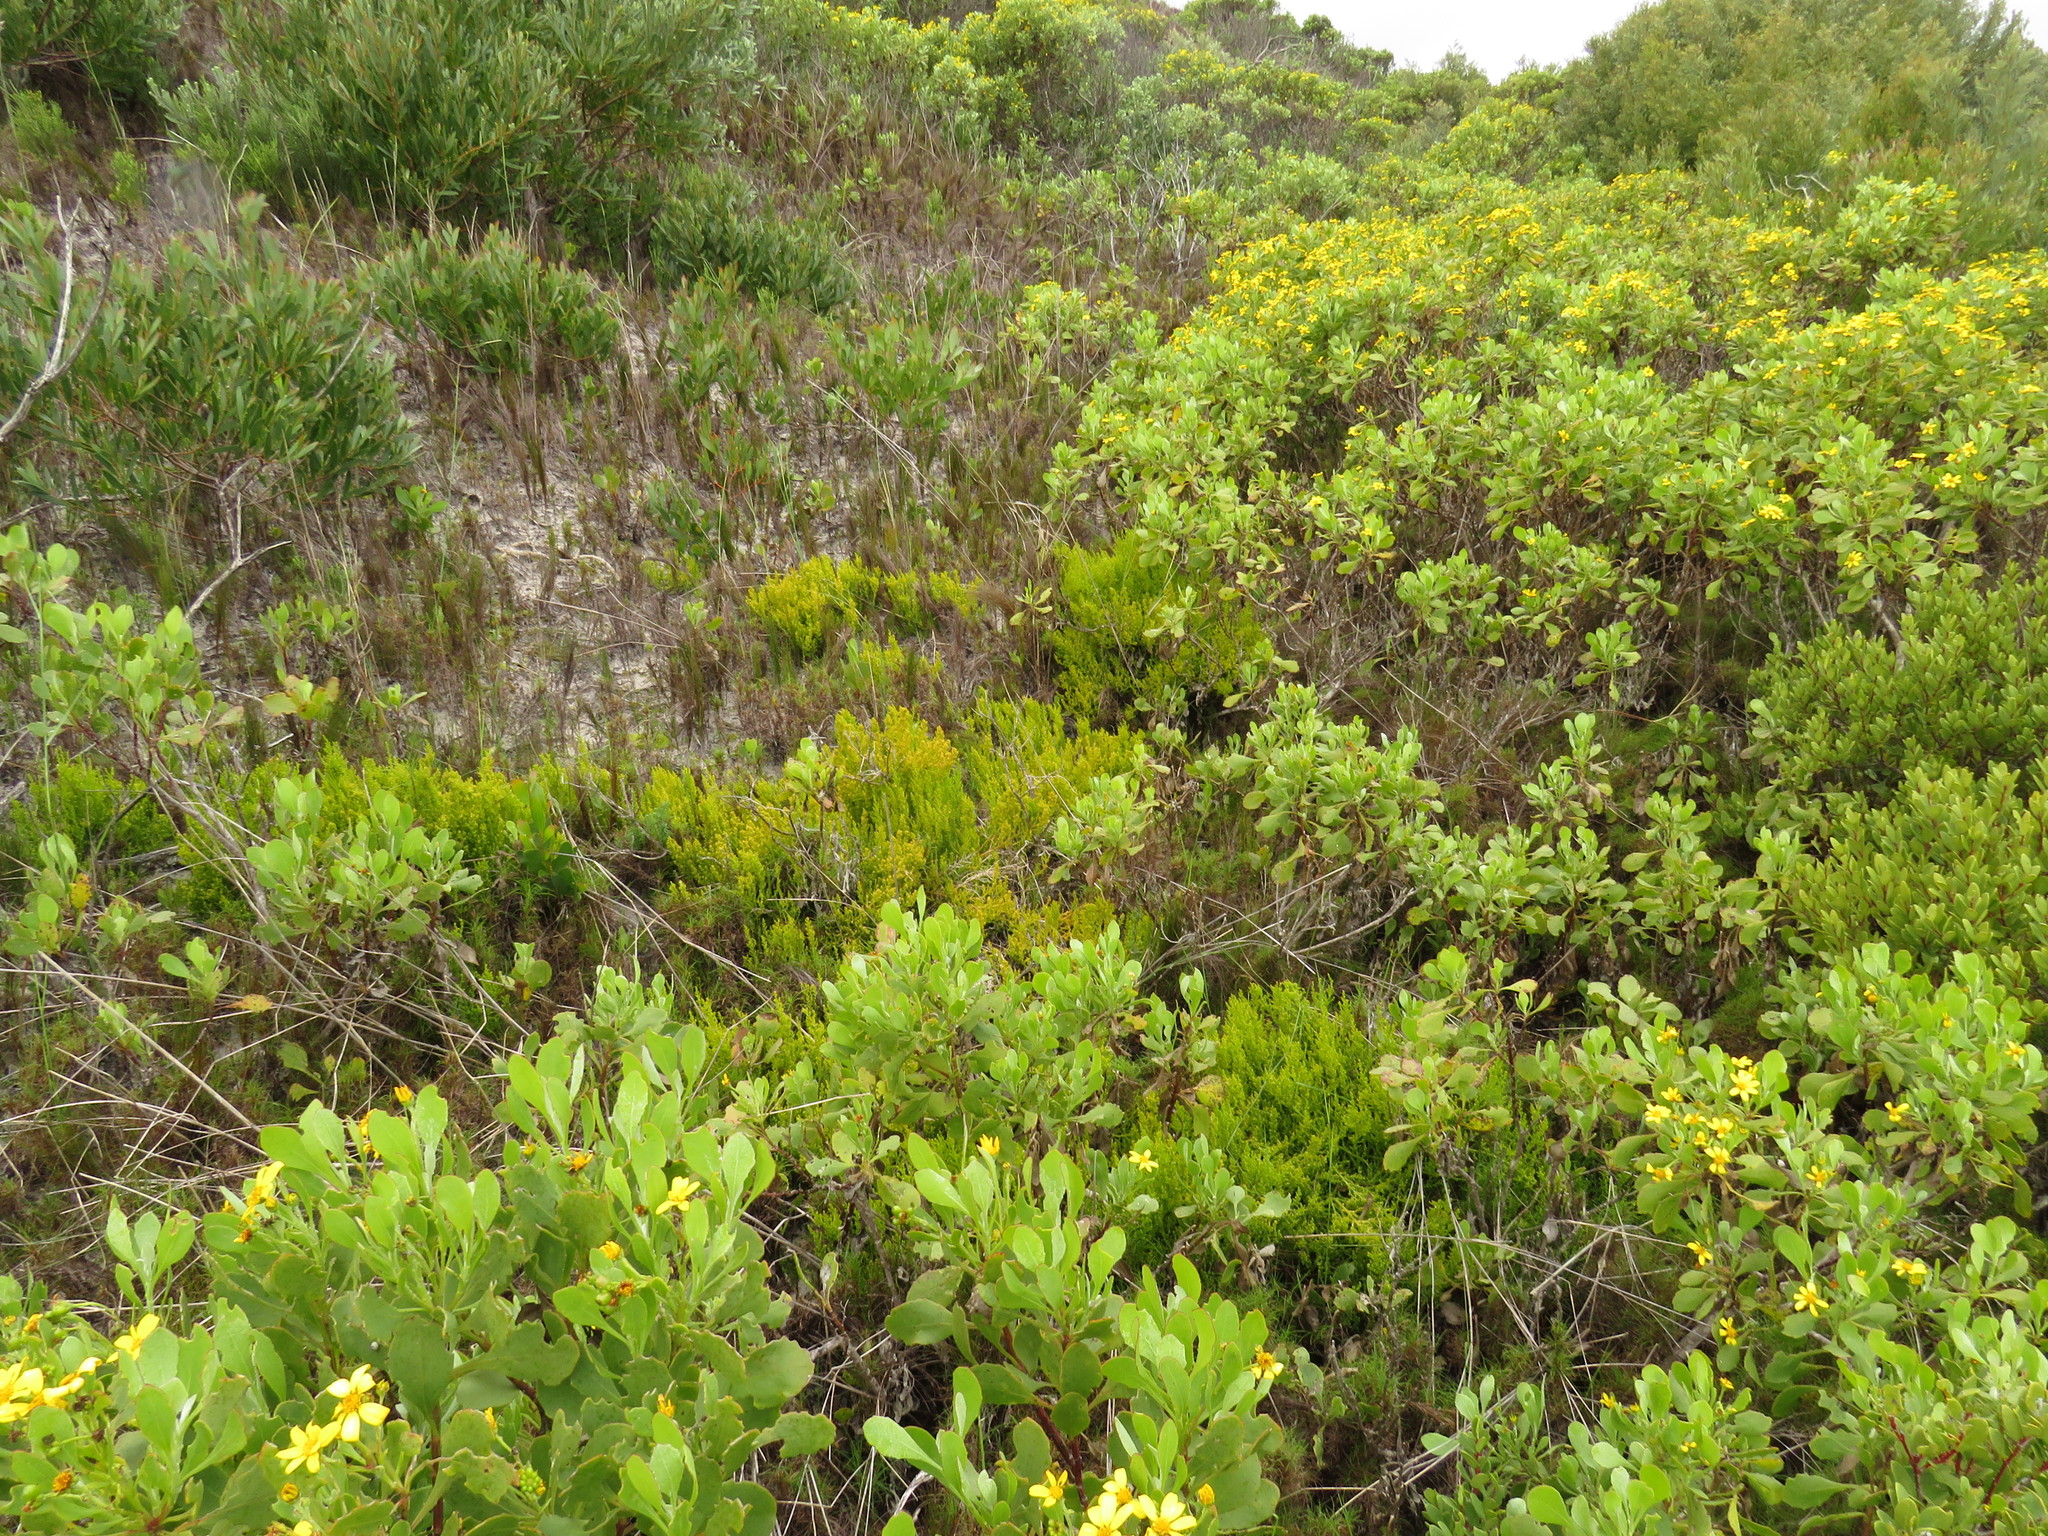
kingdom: Plantae
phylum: Tracheophyta
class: Magnoliopsida
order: Santalales
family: Thesiaceae
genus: Thesium
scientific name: Thesium fragile
